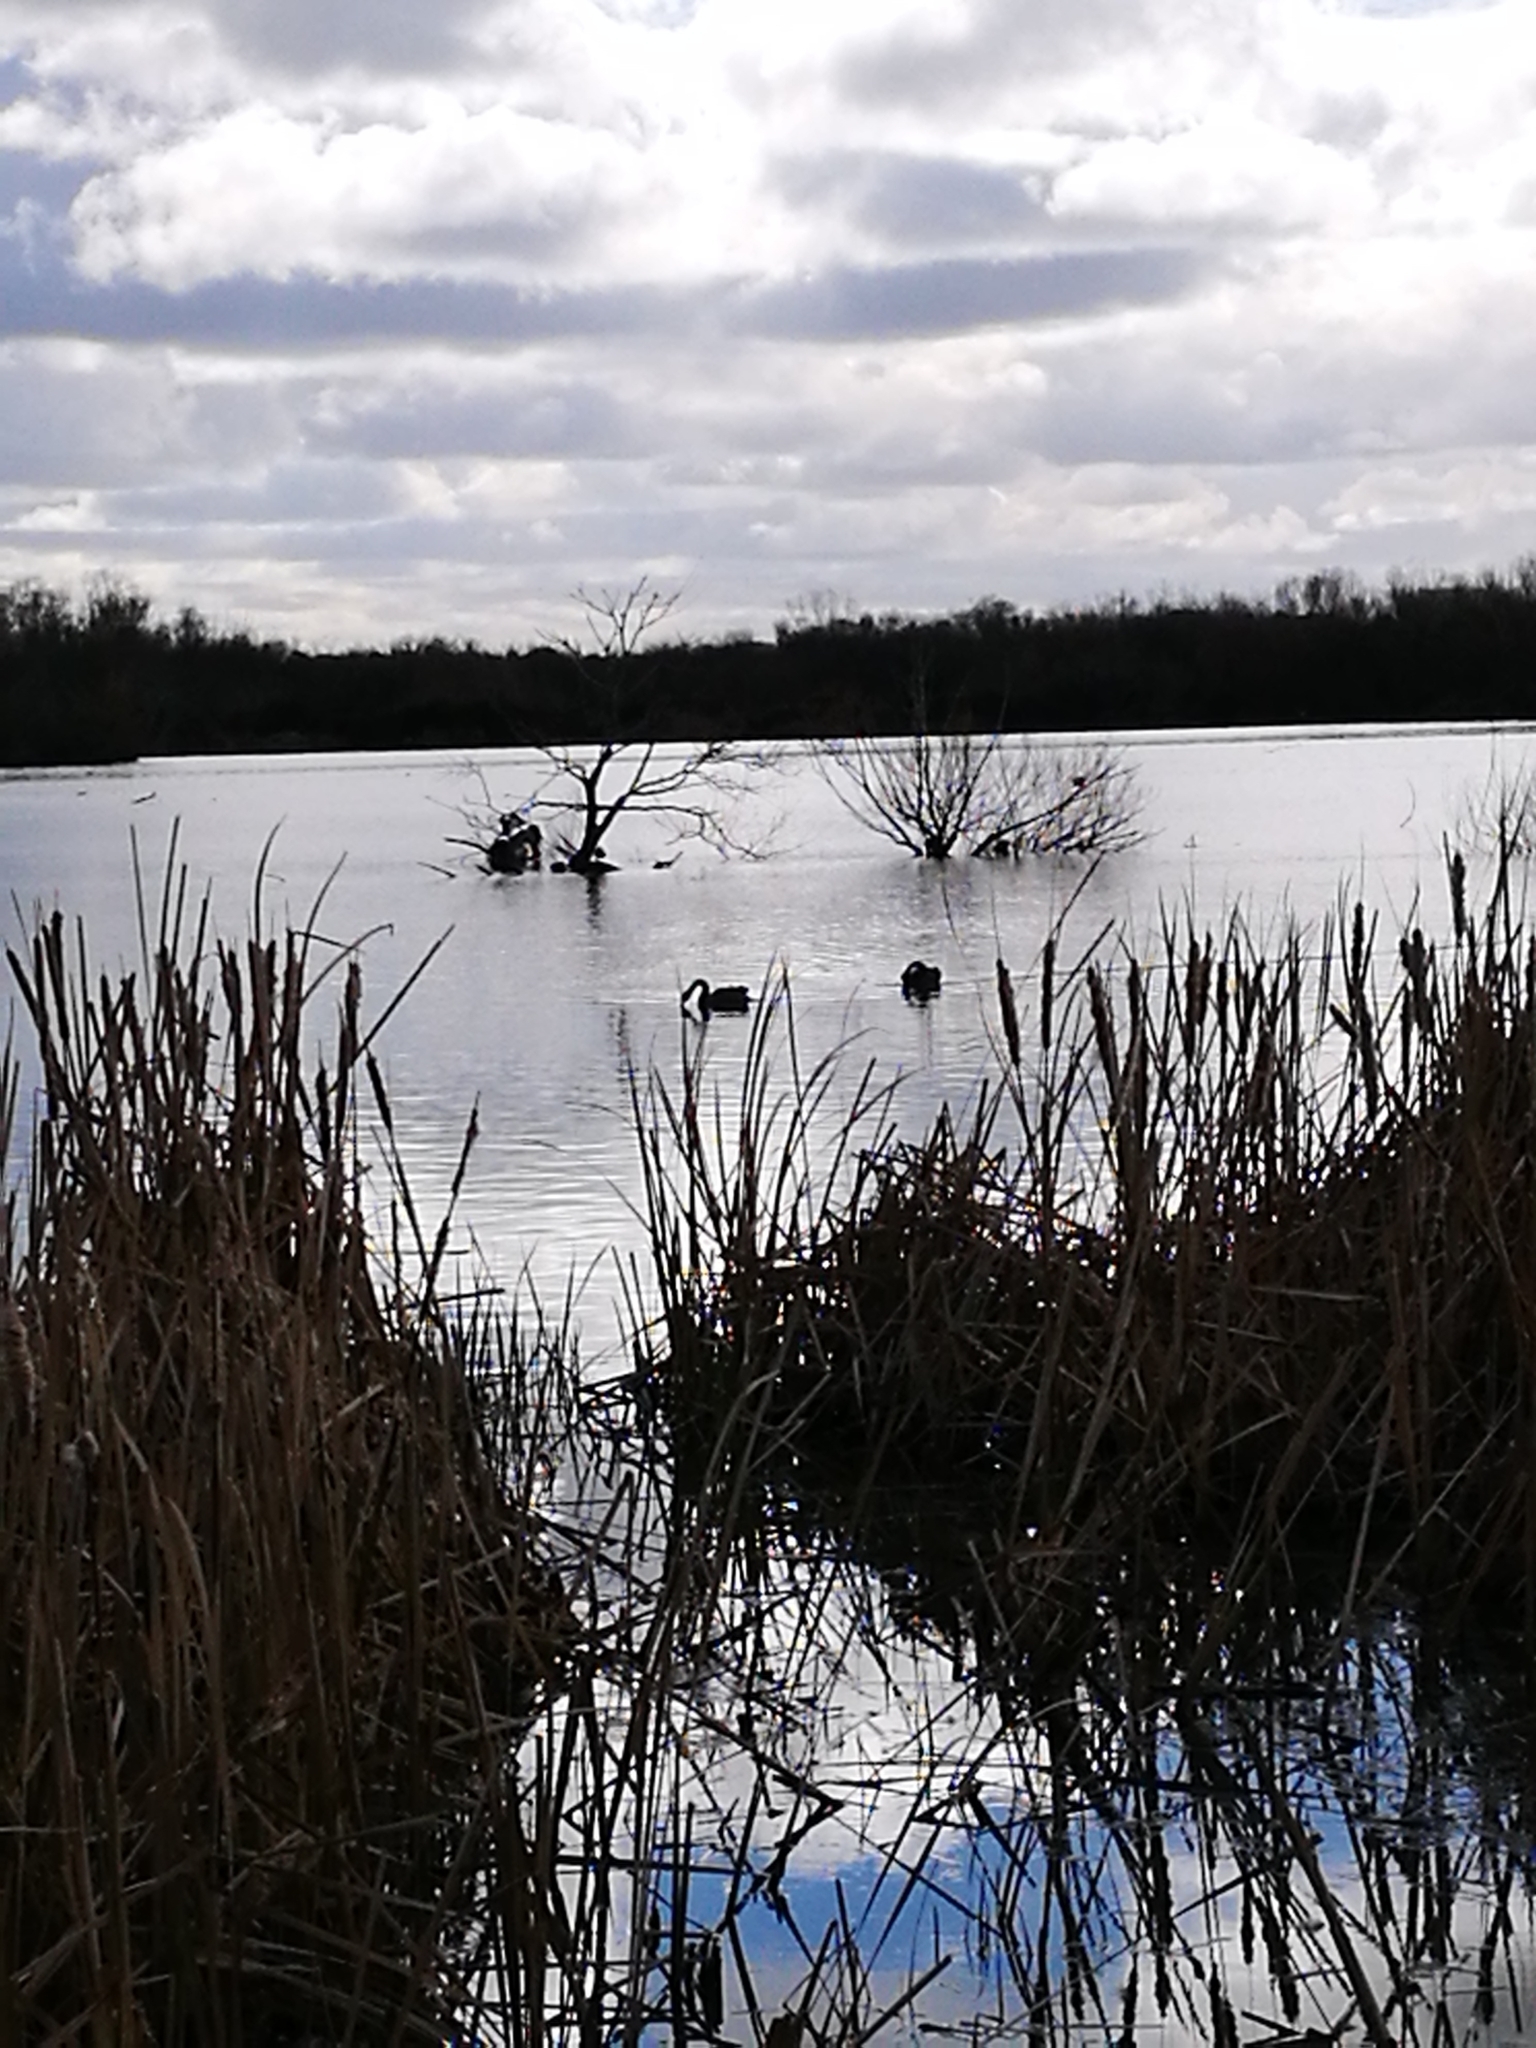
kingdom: Animalia
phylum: Chordata
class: Aves
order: Anseriformes
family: Anatidae
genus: Cygnus
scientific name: Cygnus atratus
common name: Black swan
